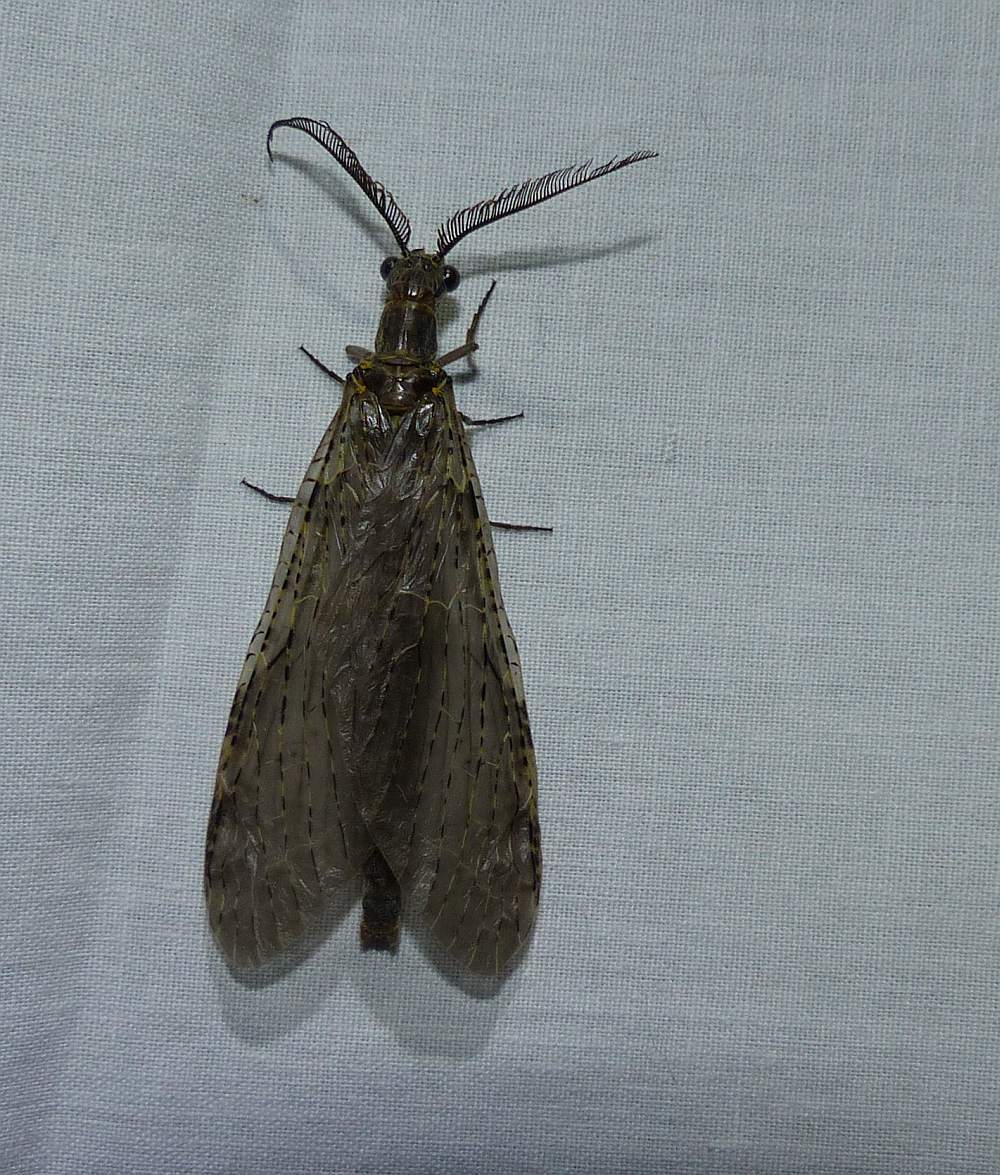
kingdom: Animalia
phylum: Arthropoda
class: Insecta
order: Megaloptera
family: Corydalidae
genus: Chauliodes
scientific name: Chauliodes rastricornis
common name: Spring fishfly
